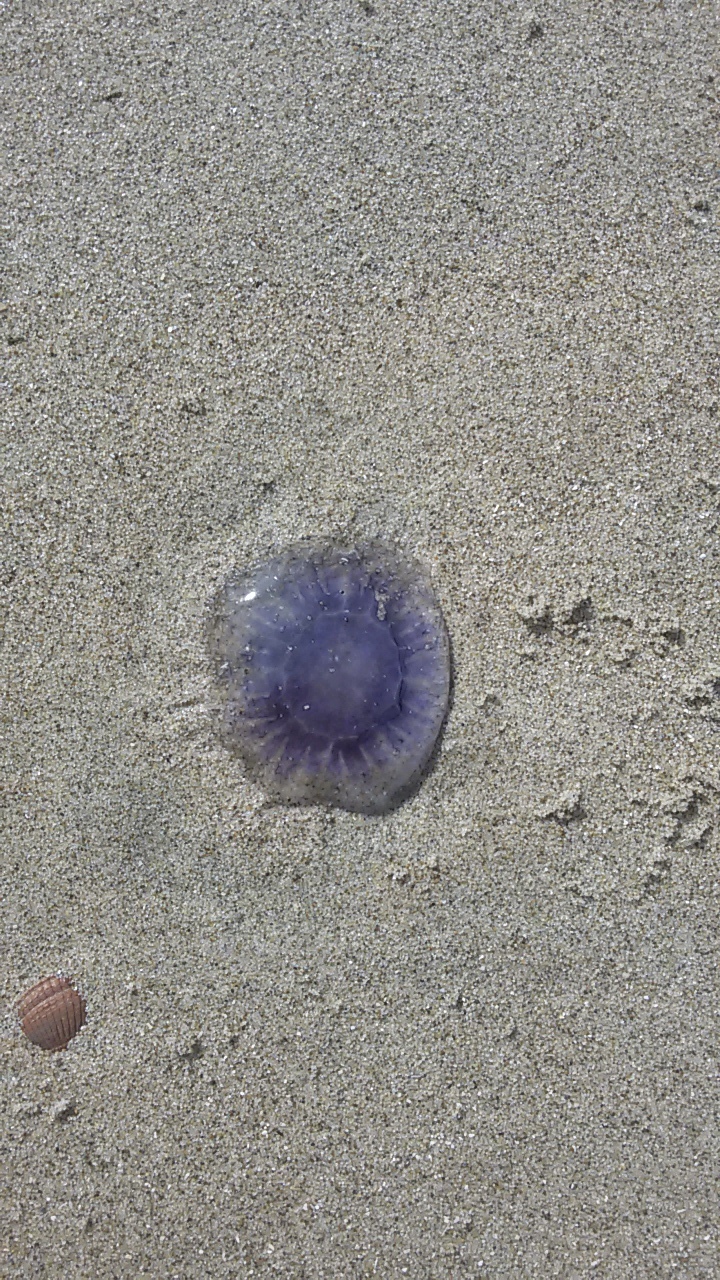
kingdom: Animalia
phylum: Cnidaria
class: Scyphozoa
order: Semaeostomeae
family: Cyaneidae
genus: Cyanea
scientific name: Cyanea lamarckii
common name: Blue jellyfish
